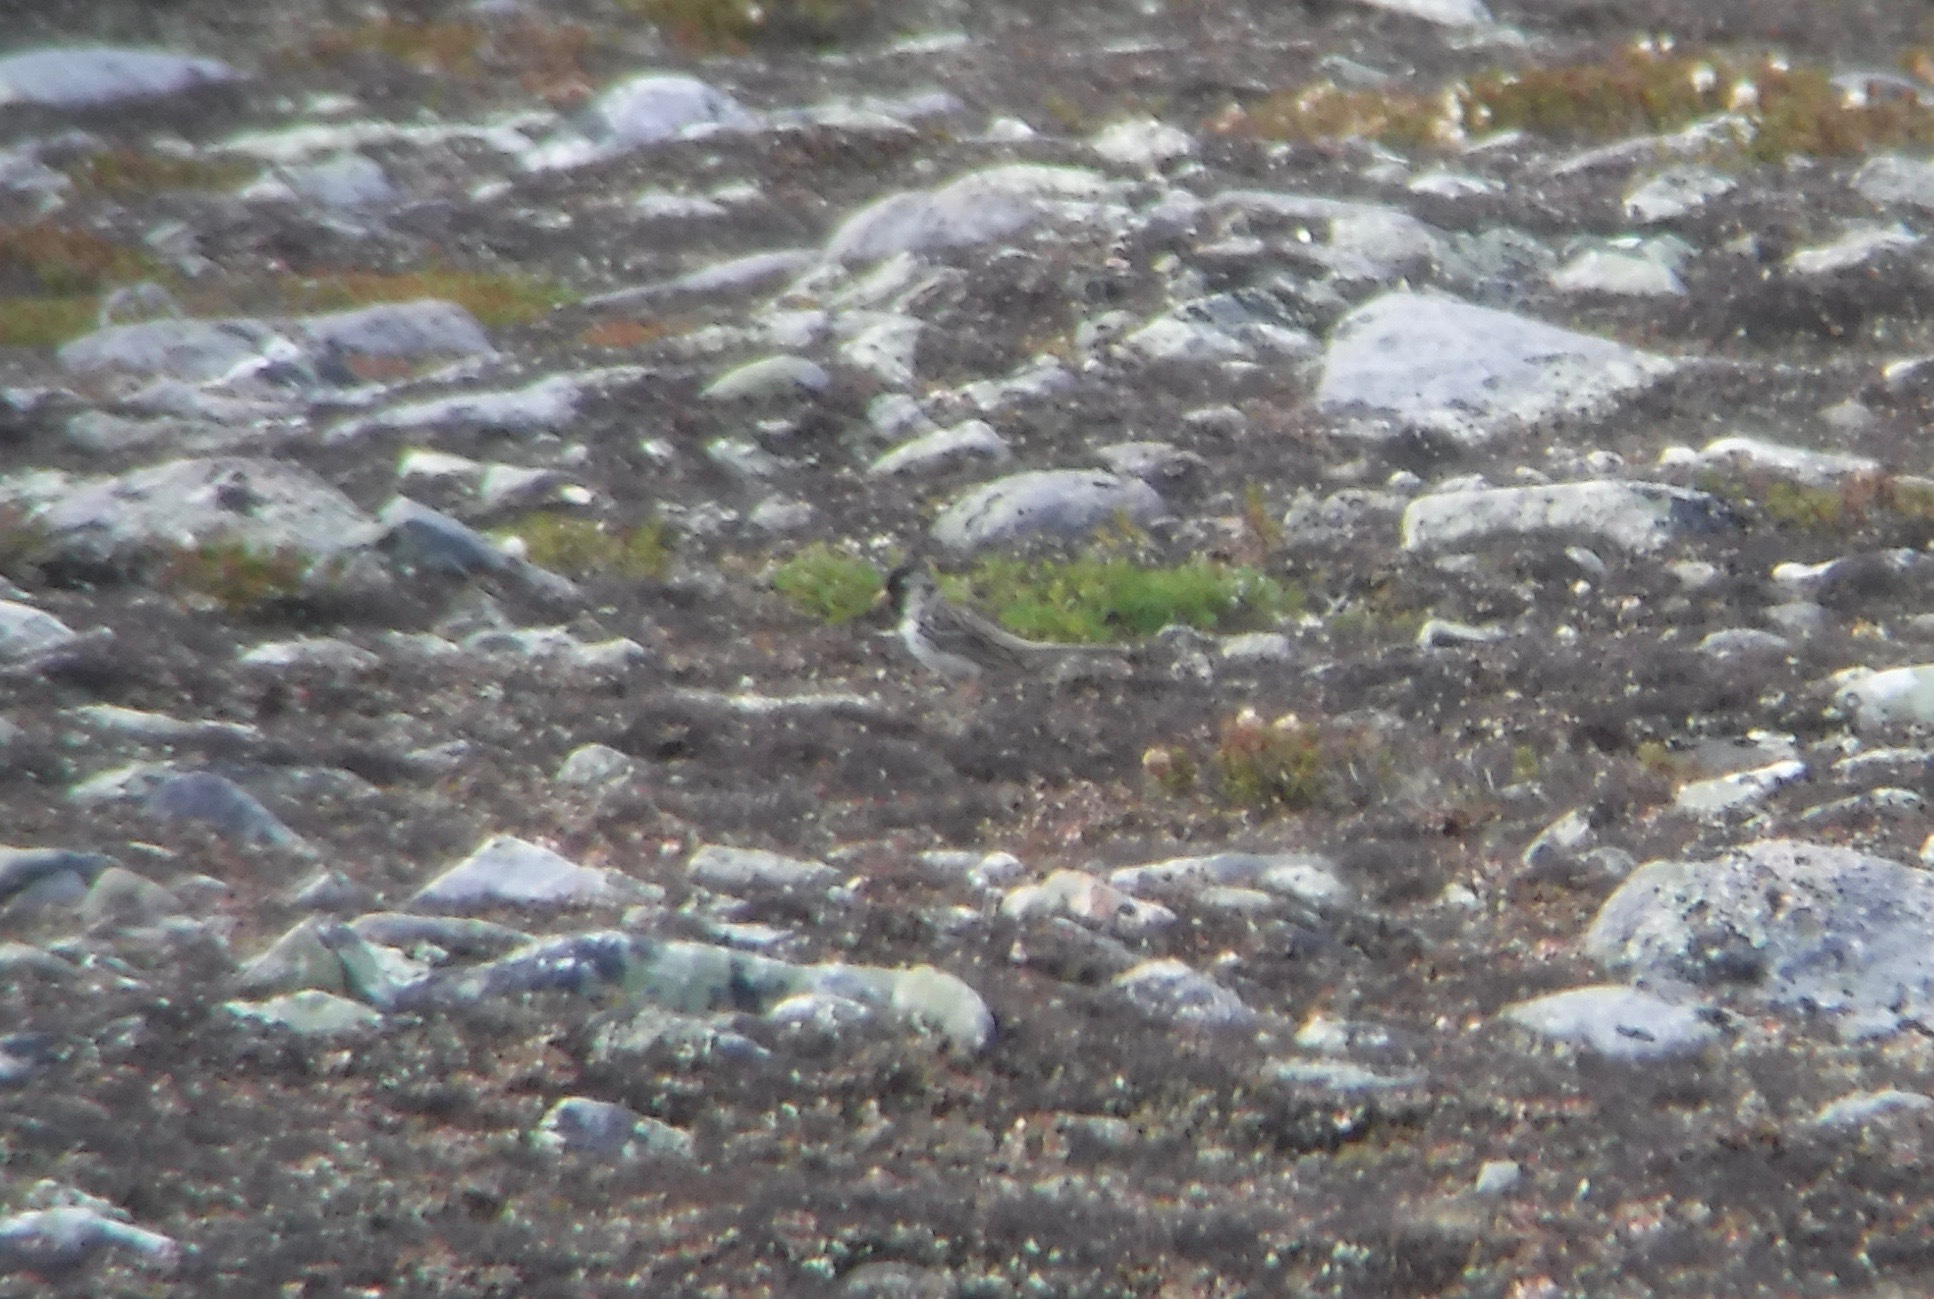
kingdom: Animalia
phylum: Chordata
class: Aves
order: Passeriformes
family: Passerellidae
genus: Zonotrichia
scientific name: Zonotrichia querula
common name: Harris's sparrow
